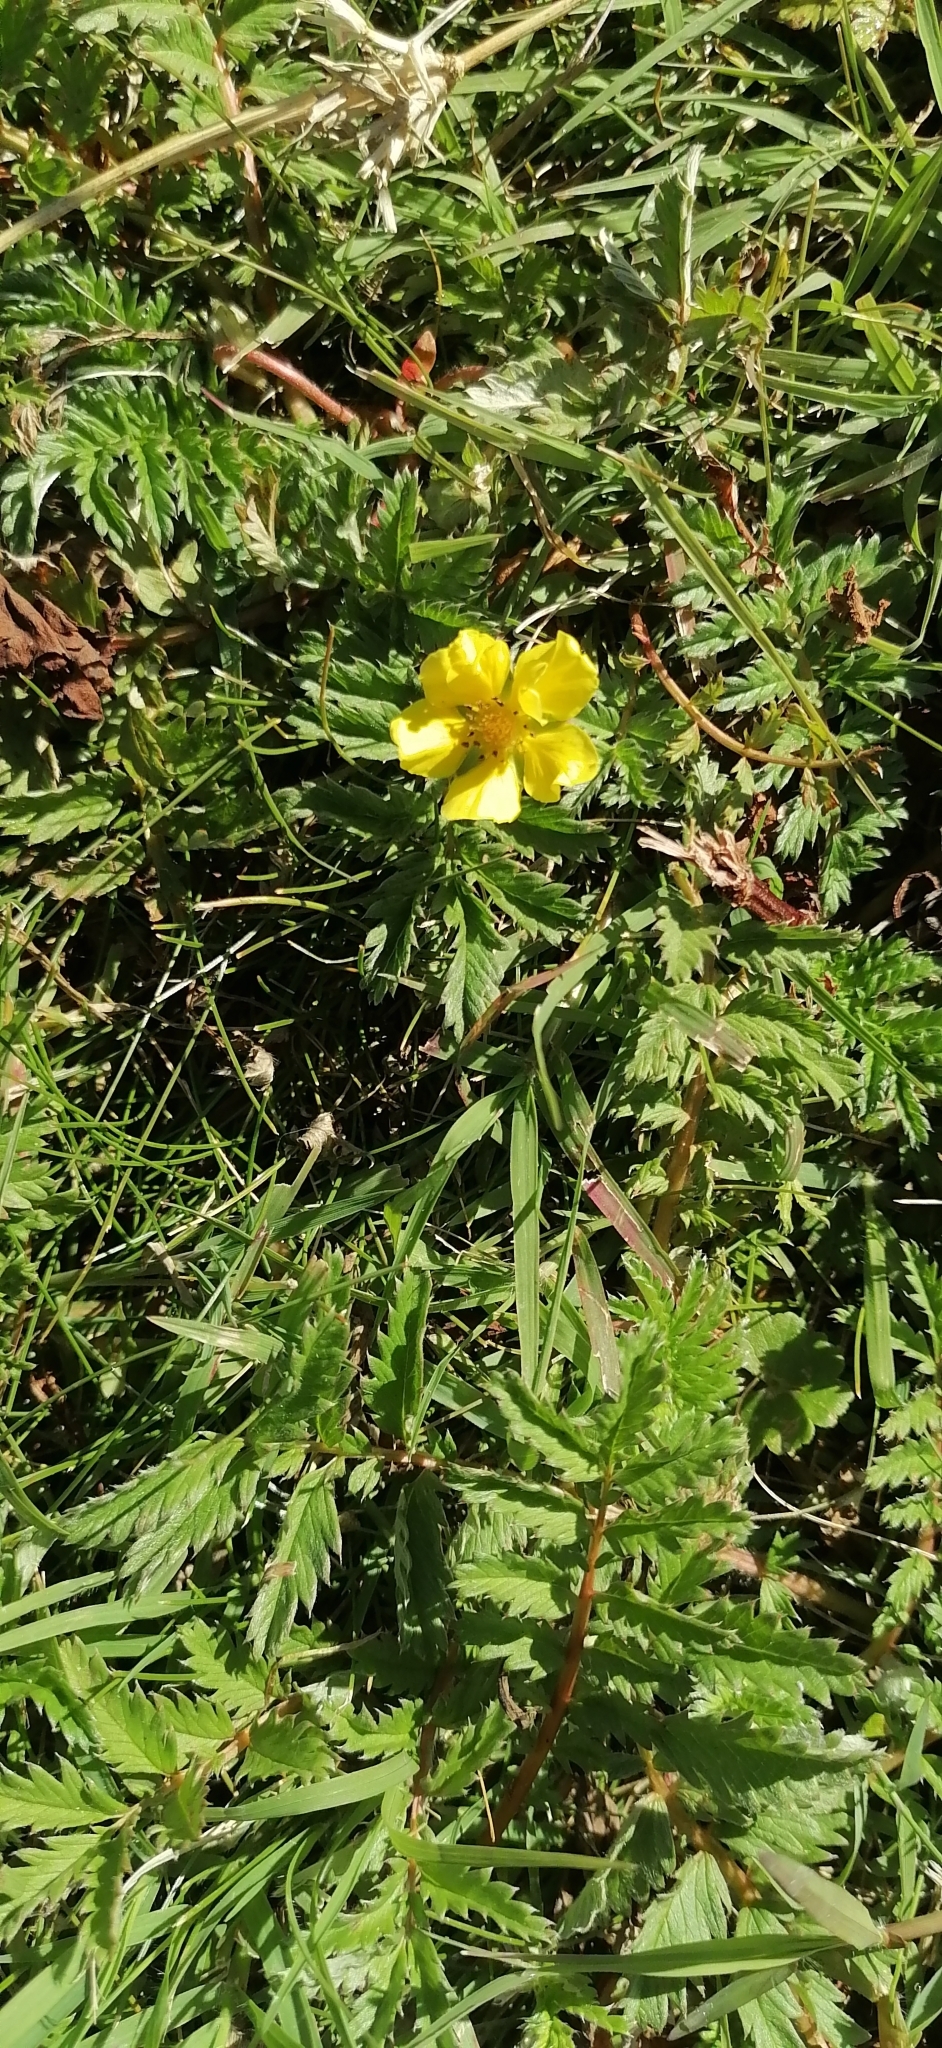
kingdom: Plantae
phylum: Tracheophyta
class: Magnoliopsida
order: Rosales
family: Rosaceae
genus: Argentina
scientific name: Argentina anserina
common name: Common silverweed
